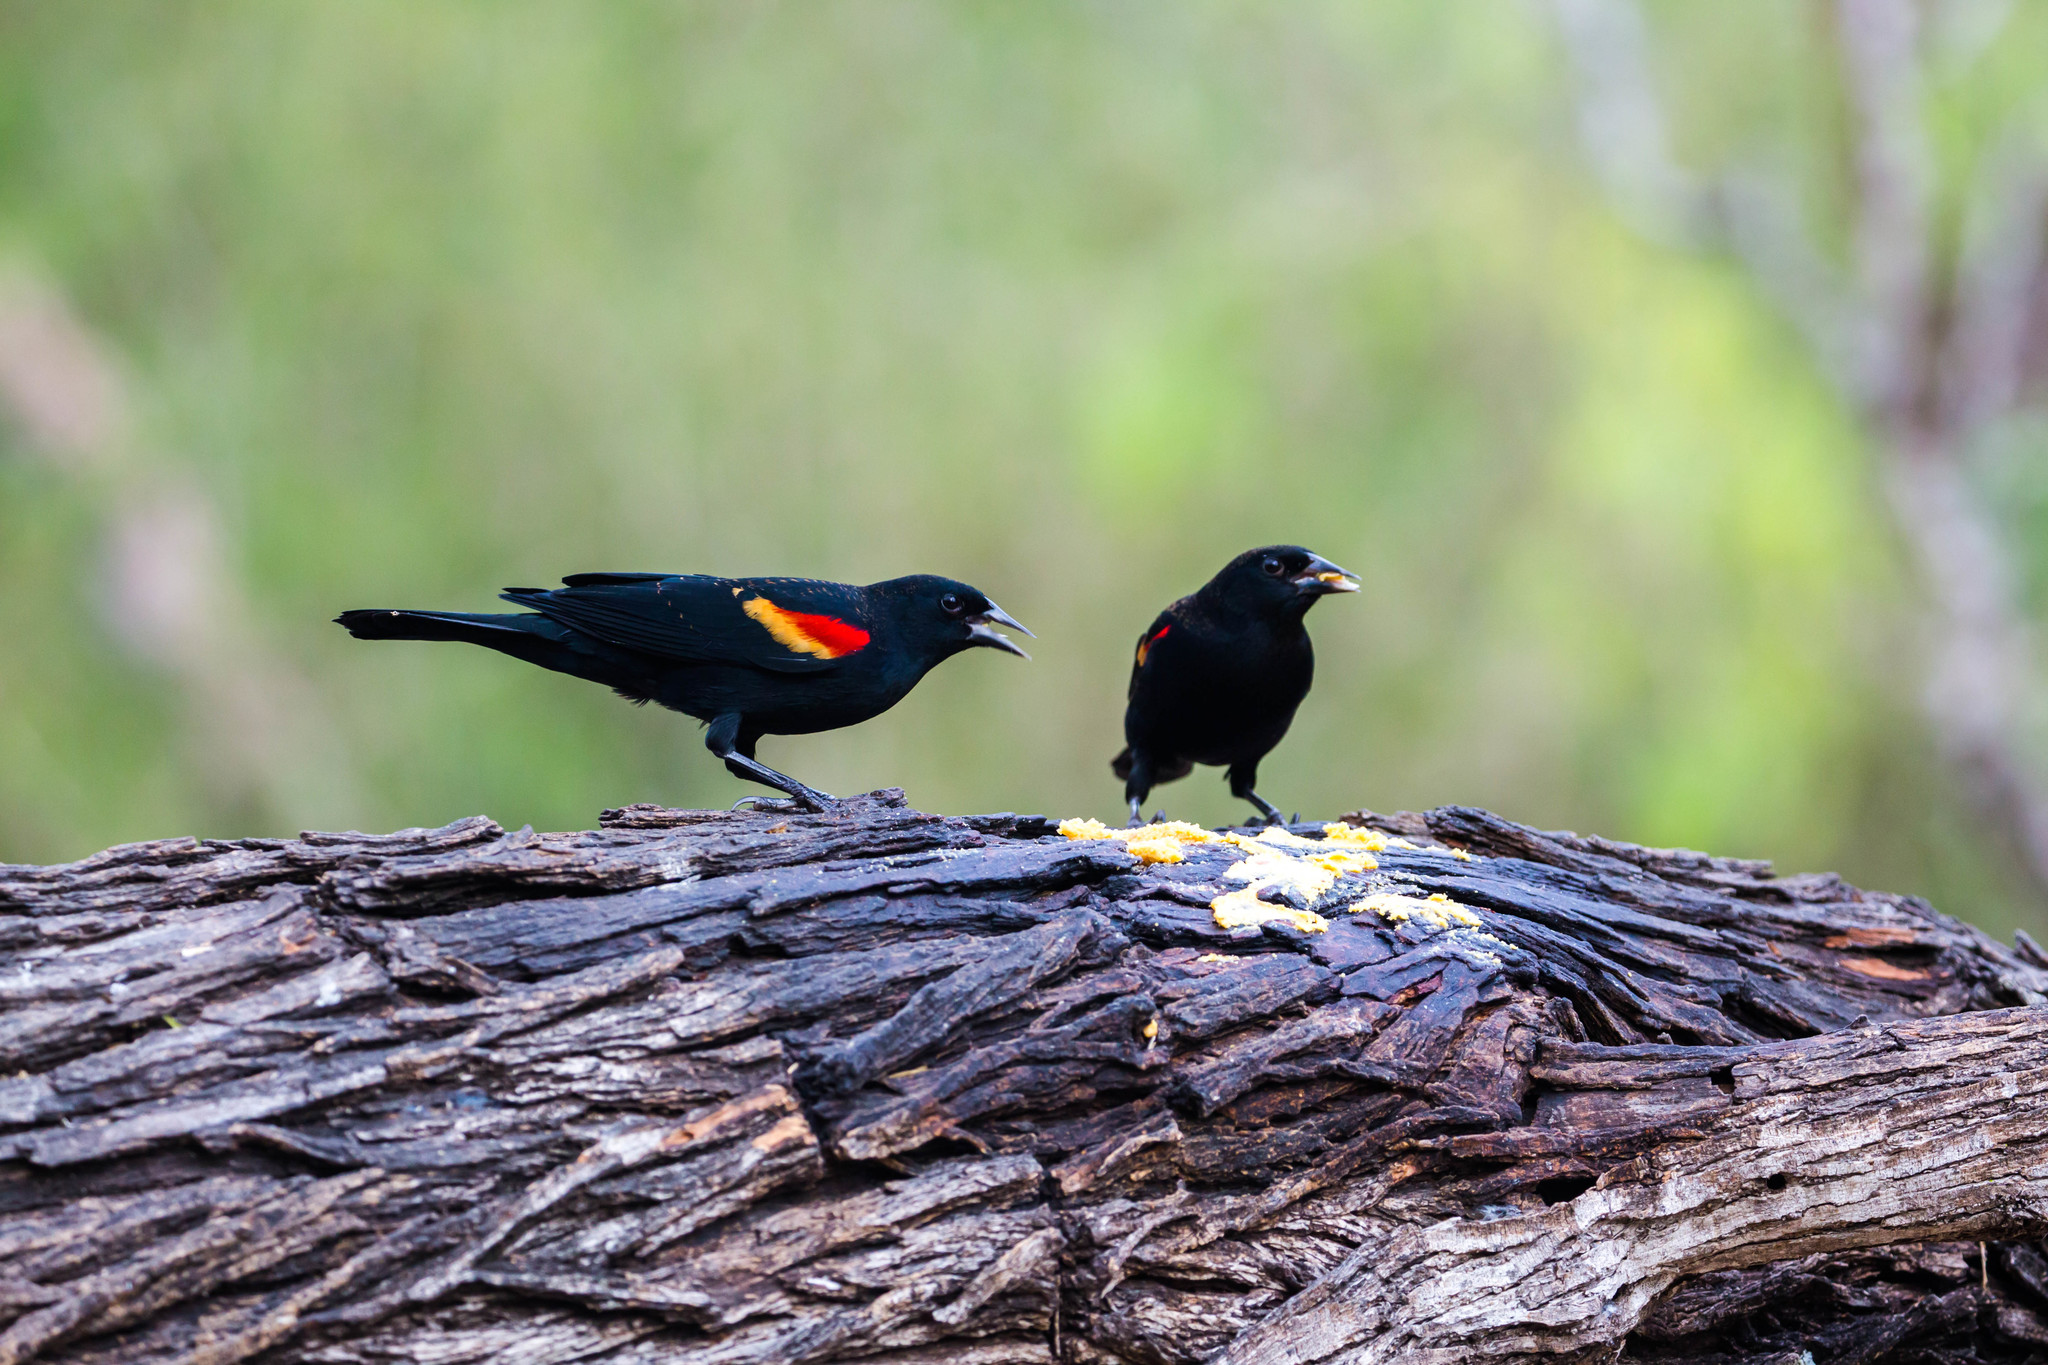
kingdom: Animalia
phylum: Chordata
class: Aves
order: Passeriformes
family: Icteridae
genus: Agelaius
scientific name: Agelaius phoeniceus
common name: Red-winged blackbird
